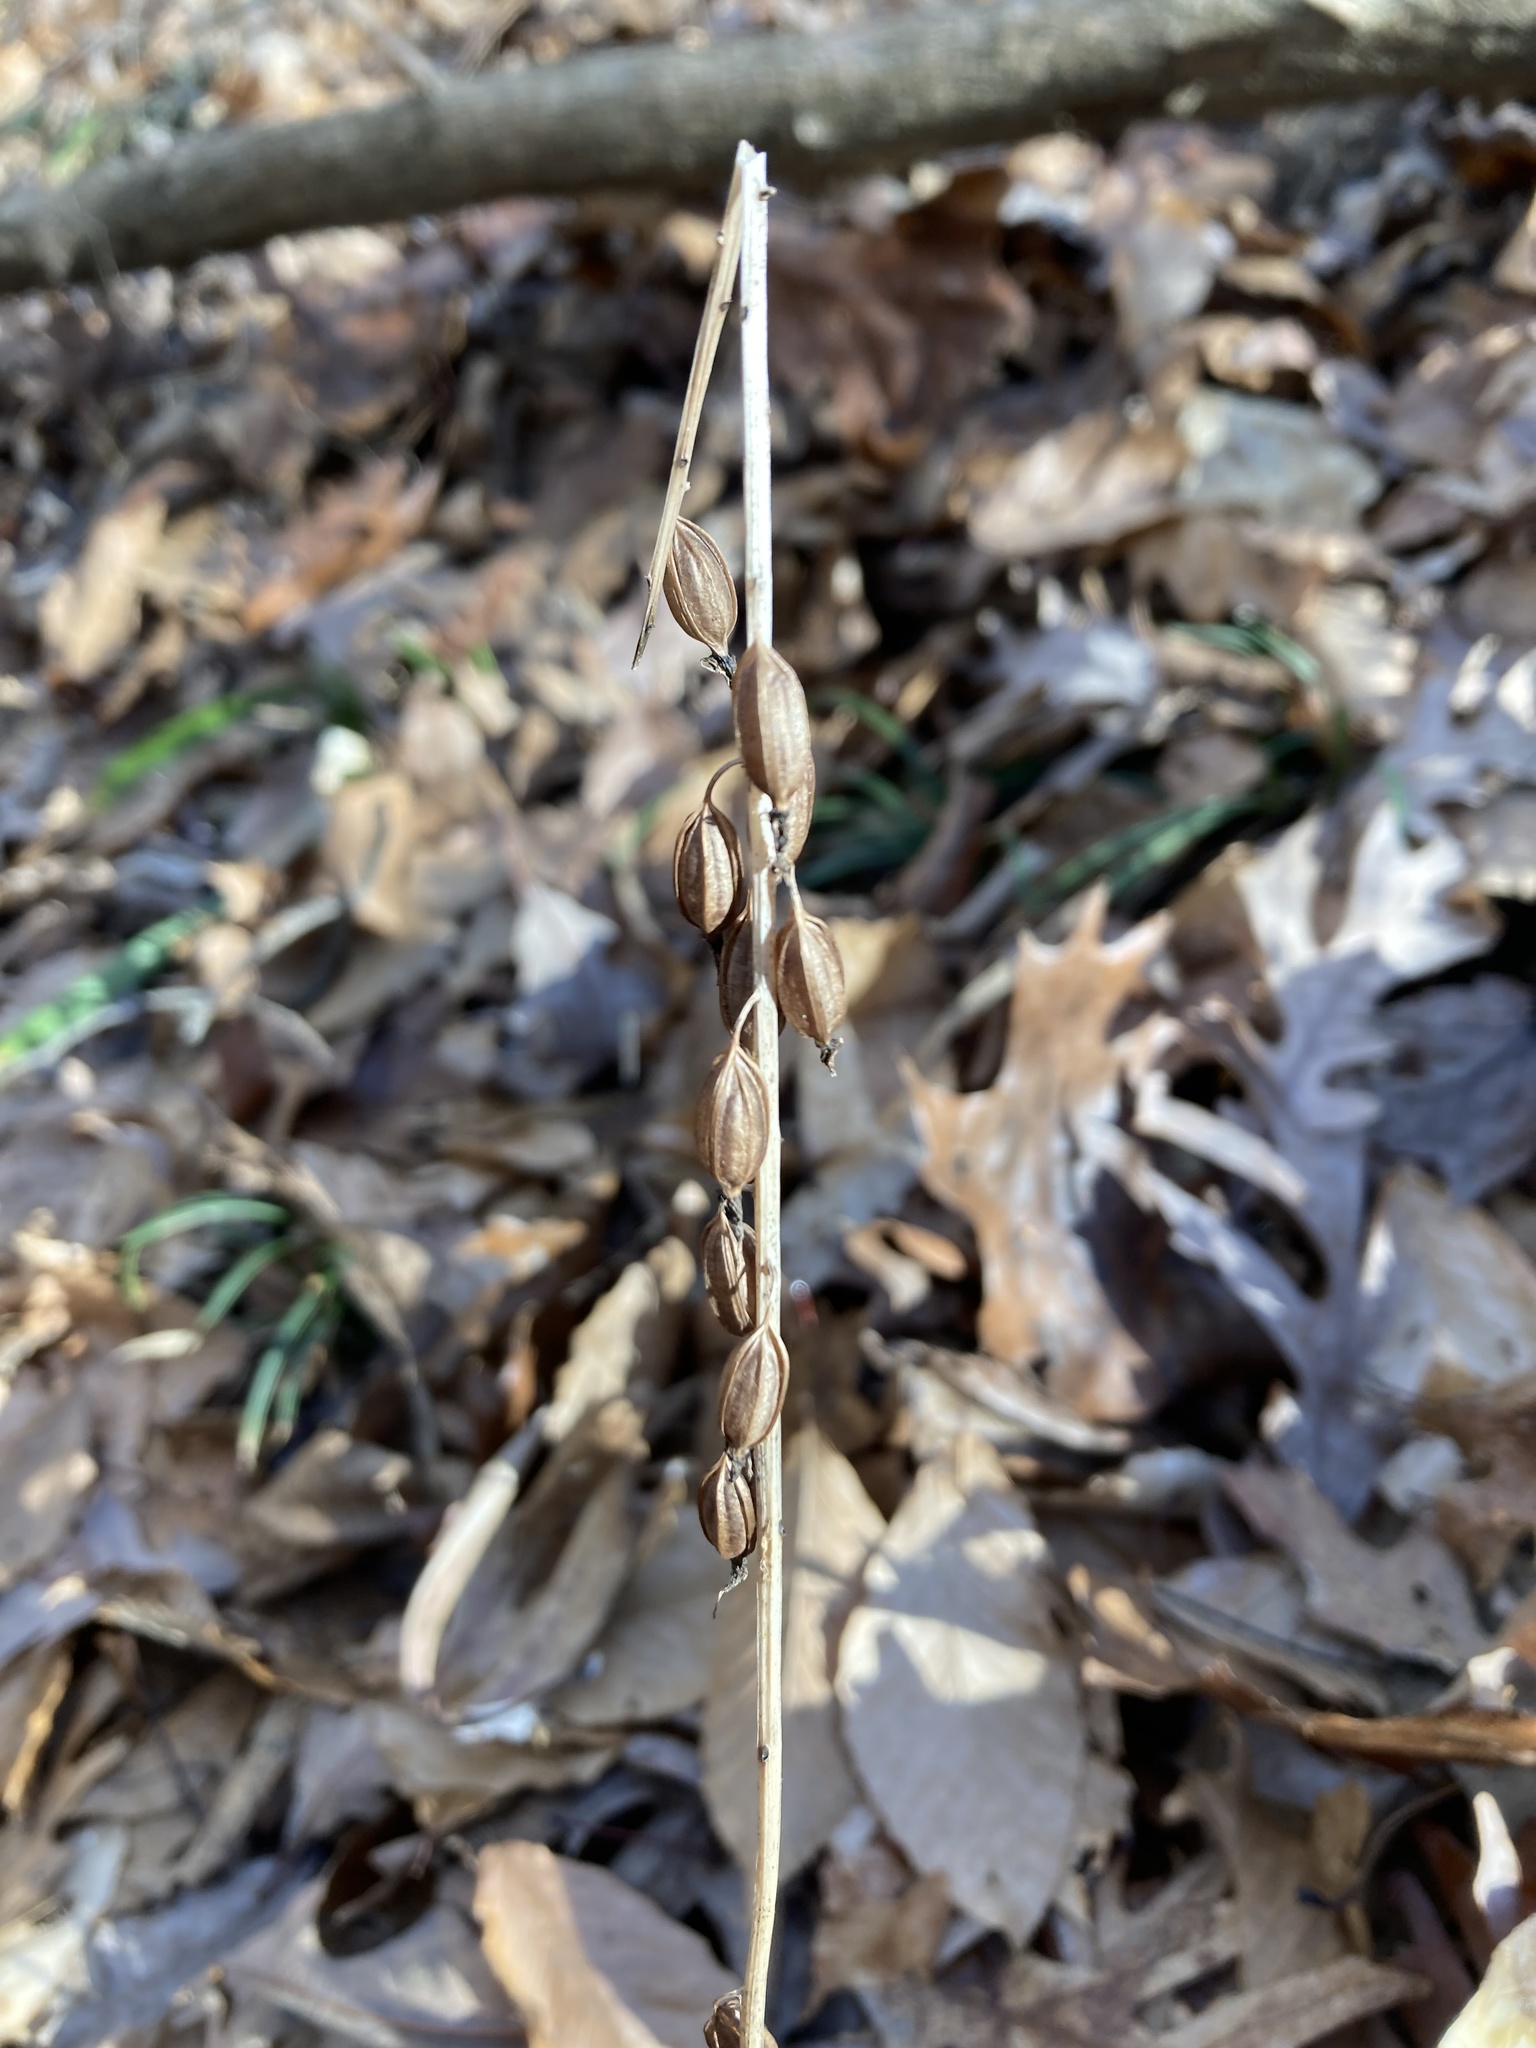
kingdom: Plantae
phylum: Tracheophyta
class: Liliopsida
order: Asparagales
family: Orchidaceae
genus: Tipularia
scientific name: Tipularia discolor
